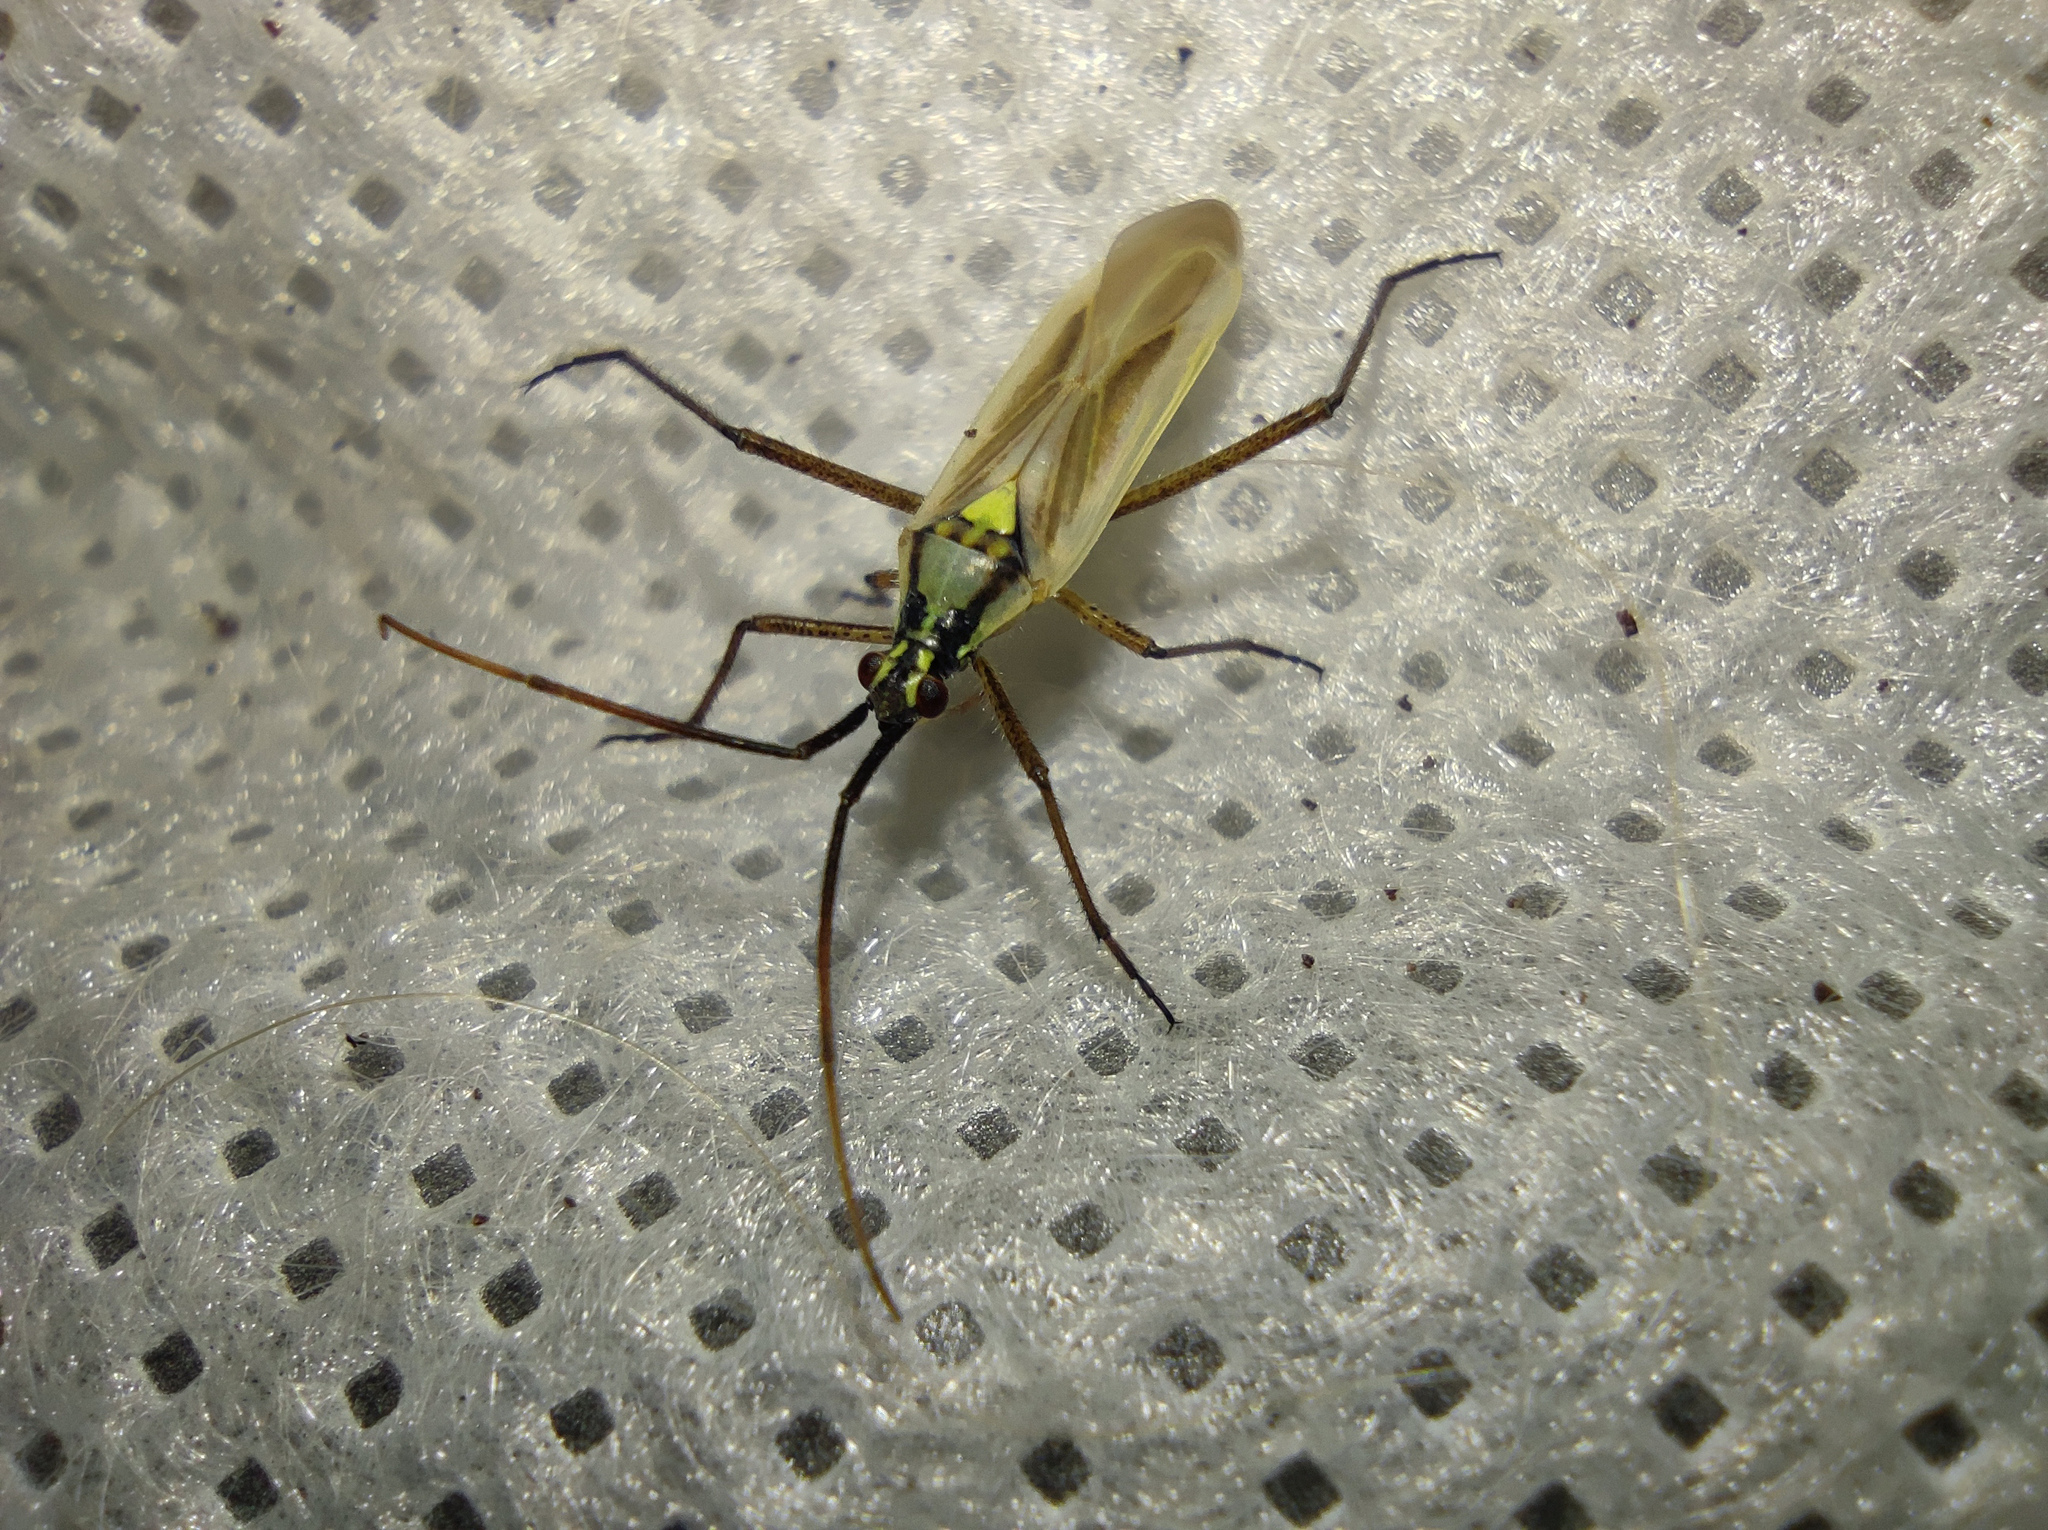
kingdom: Animalia
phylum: Arthropoda
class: Insecta
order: Hemiptera
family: Miridae
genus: Leptopterna
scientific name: Leptopterna dolabrata
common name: Meadow plant bug
